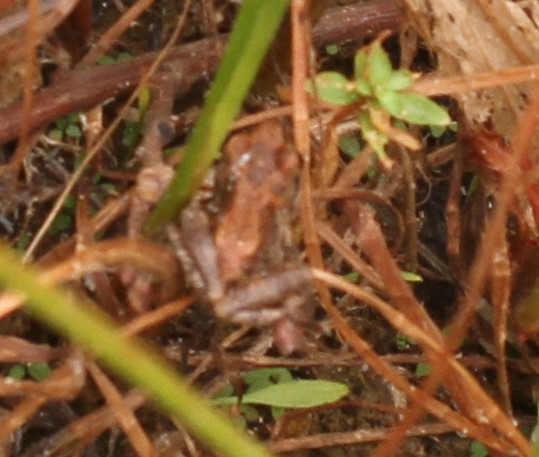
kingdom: Animalia
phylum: Chordata
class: Amphibia
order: Anura
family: Hylidae
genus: Pseudacris
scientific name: Pseudacris regilla
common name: Pacific chorus frog
